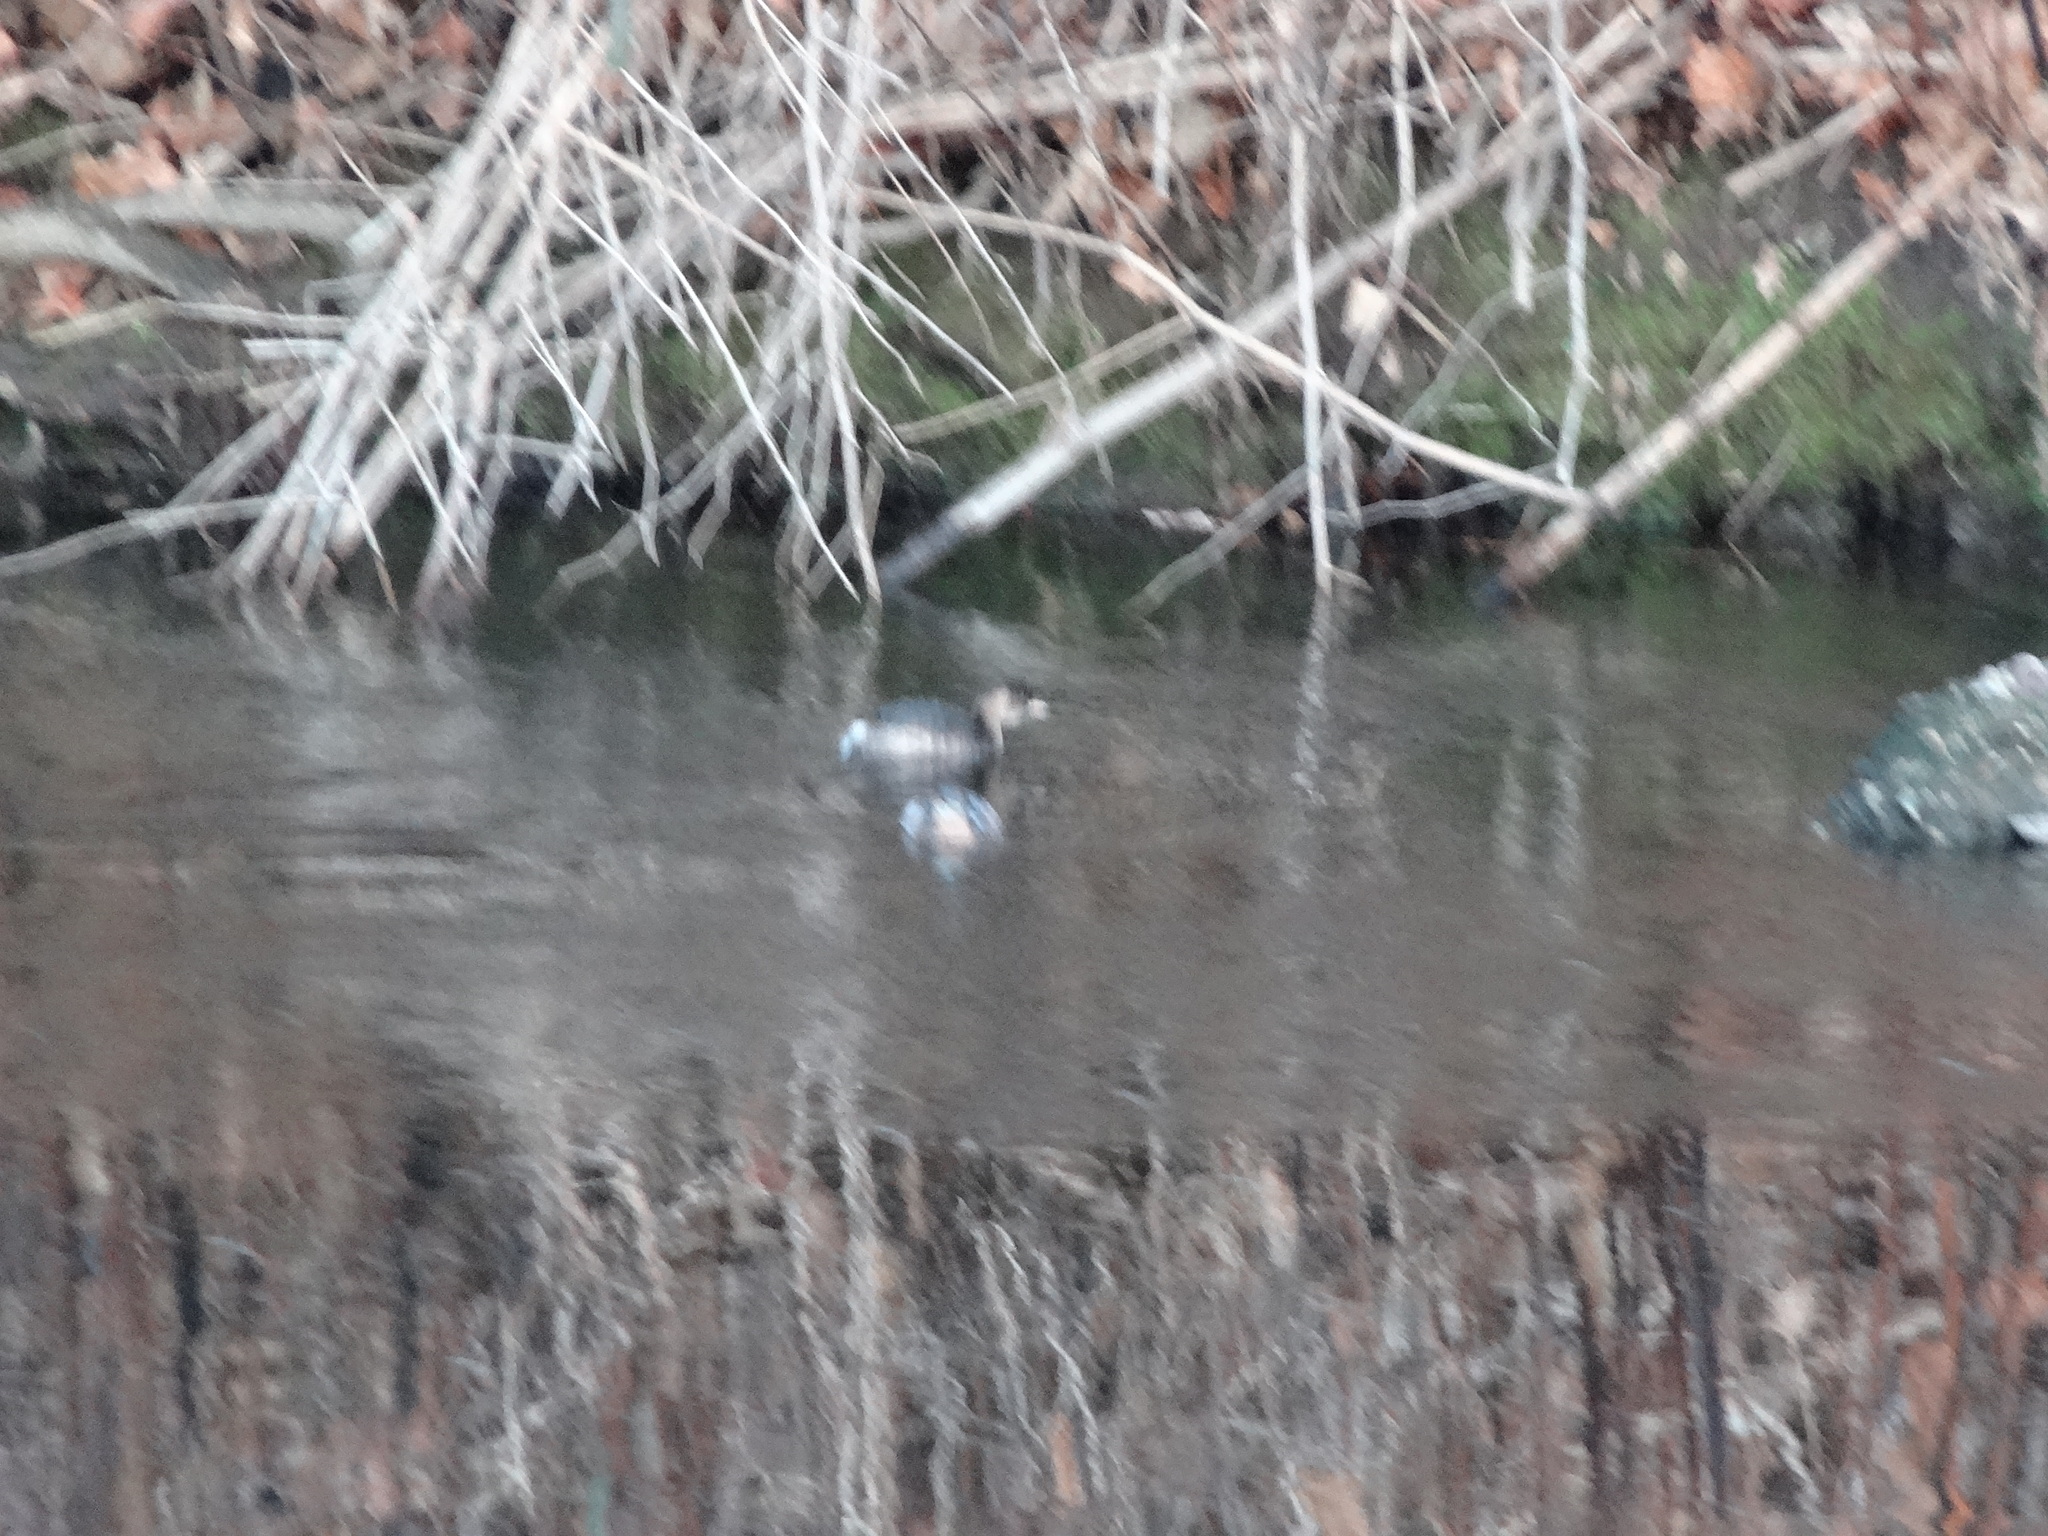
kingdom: Animalia
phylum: Chordata
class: Aves
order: Podicipediformes
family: Podicipedidae
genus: Tachybaptus
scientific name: Tachybaptus ruficollis
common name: Little grebe
